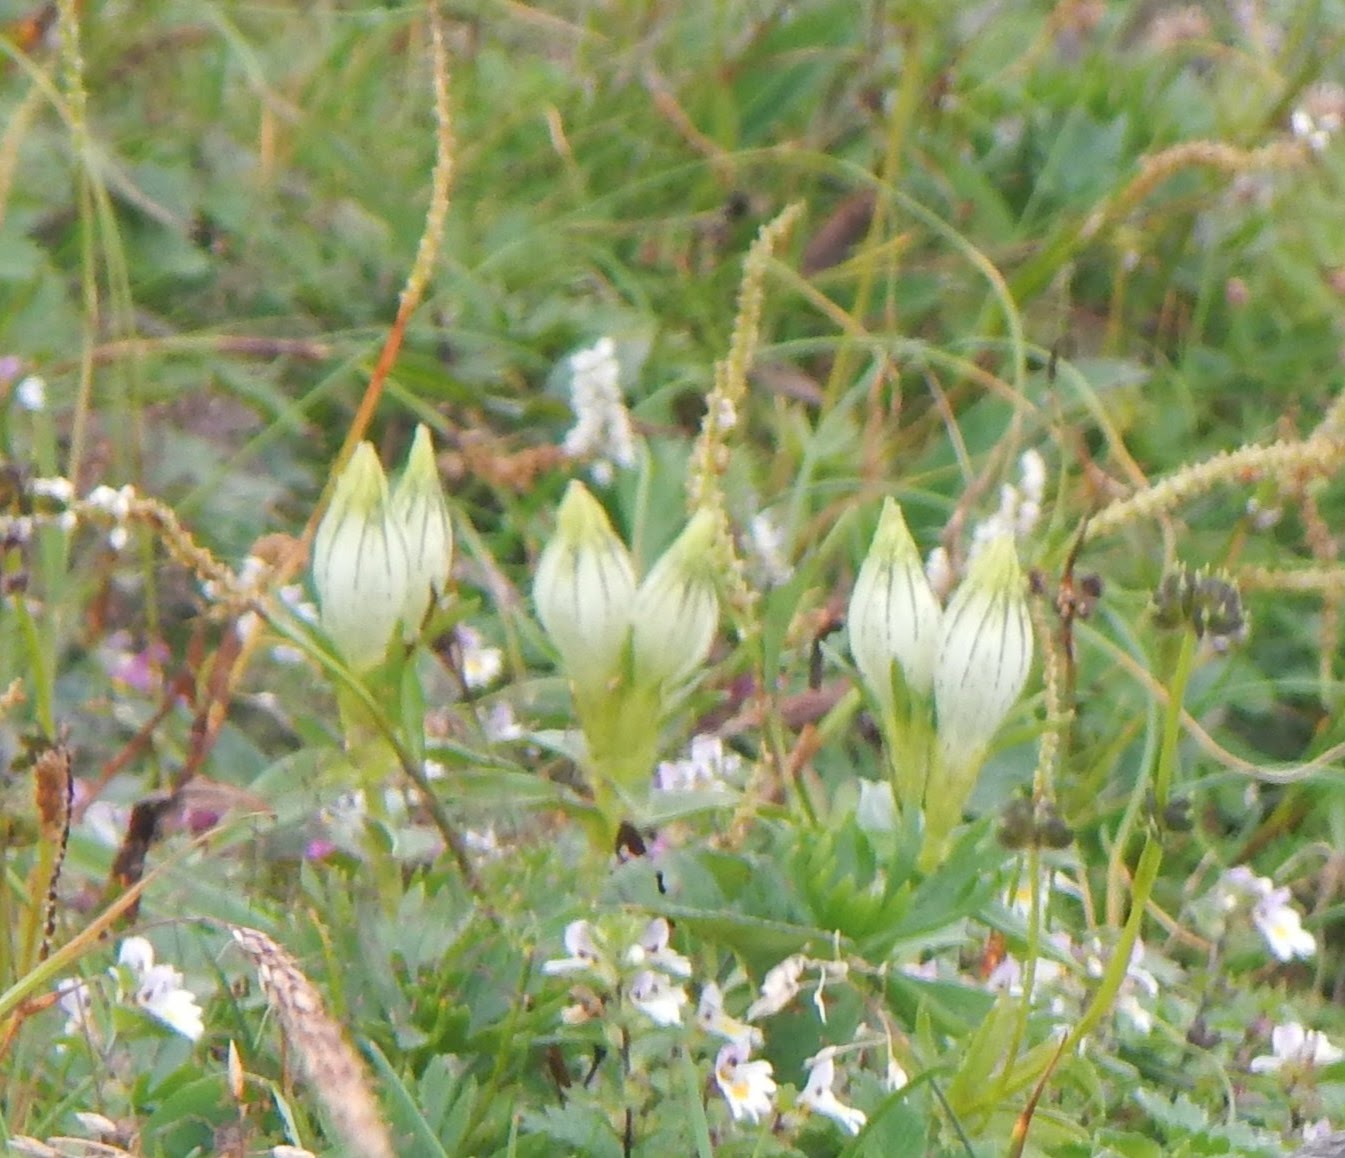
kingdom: Plantae
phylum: Tracheophyta
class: Magnoliopsida
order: Gentianales
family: Gentianaceae
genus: Gentiana
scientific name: Gentiana algida
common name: Arctic gentian
